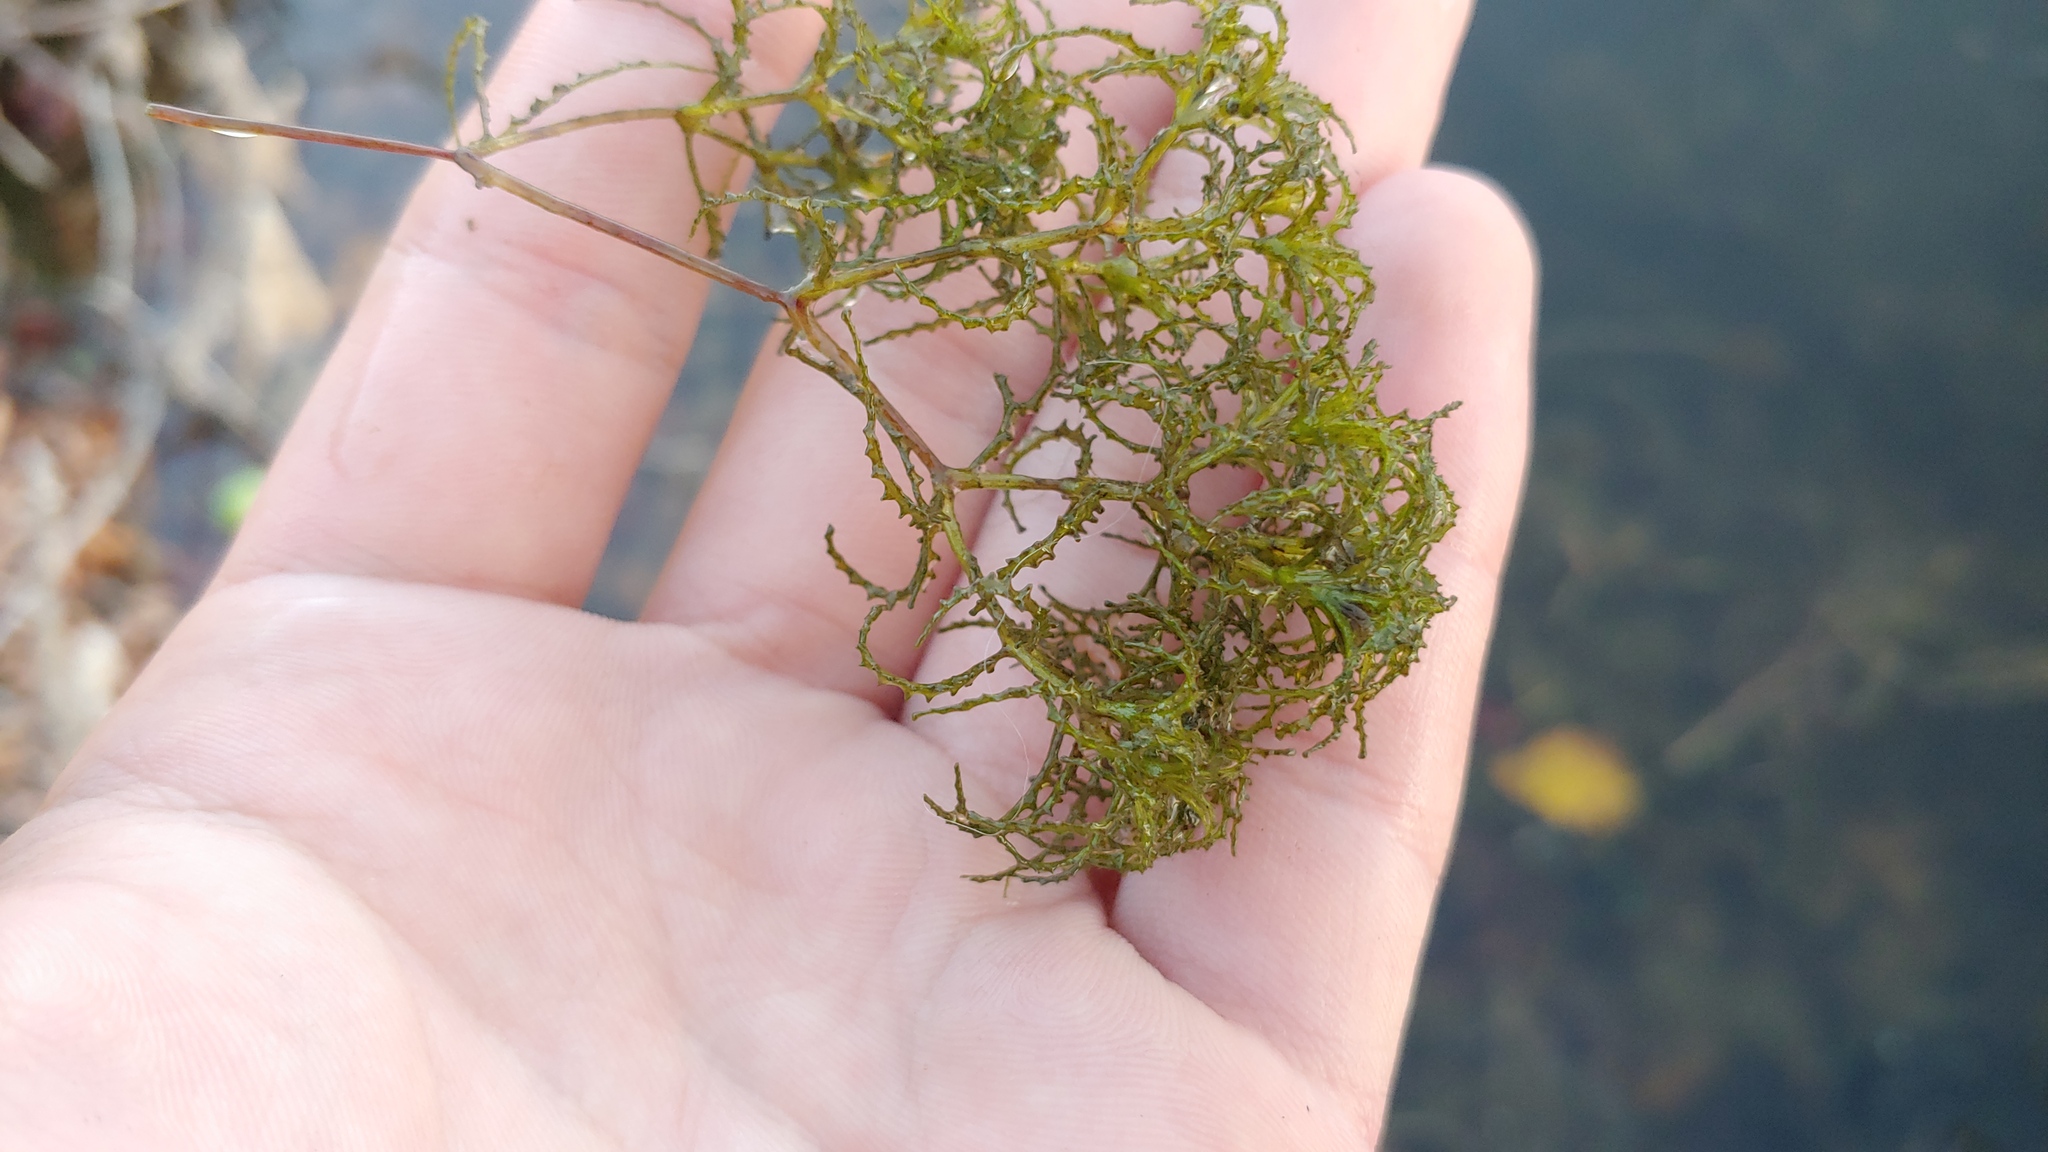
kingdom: Plantae
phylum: Tracheophyta
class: Liliopsida
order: Alismatales
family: Hydrocharitaceae
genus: Najas
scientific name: Najas minor
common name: Brittle naiad
